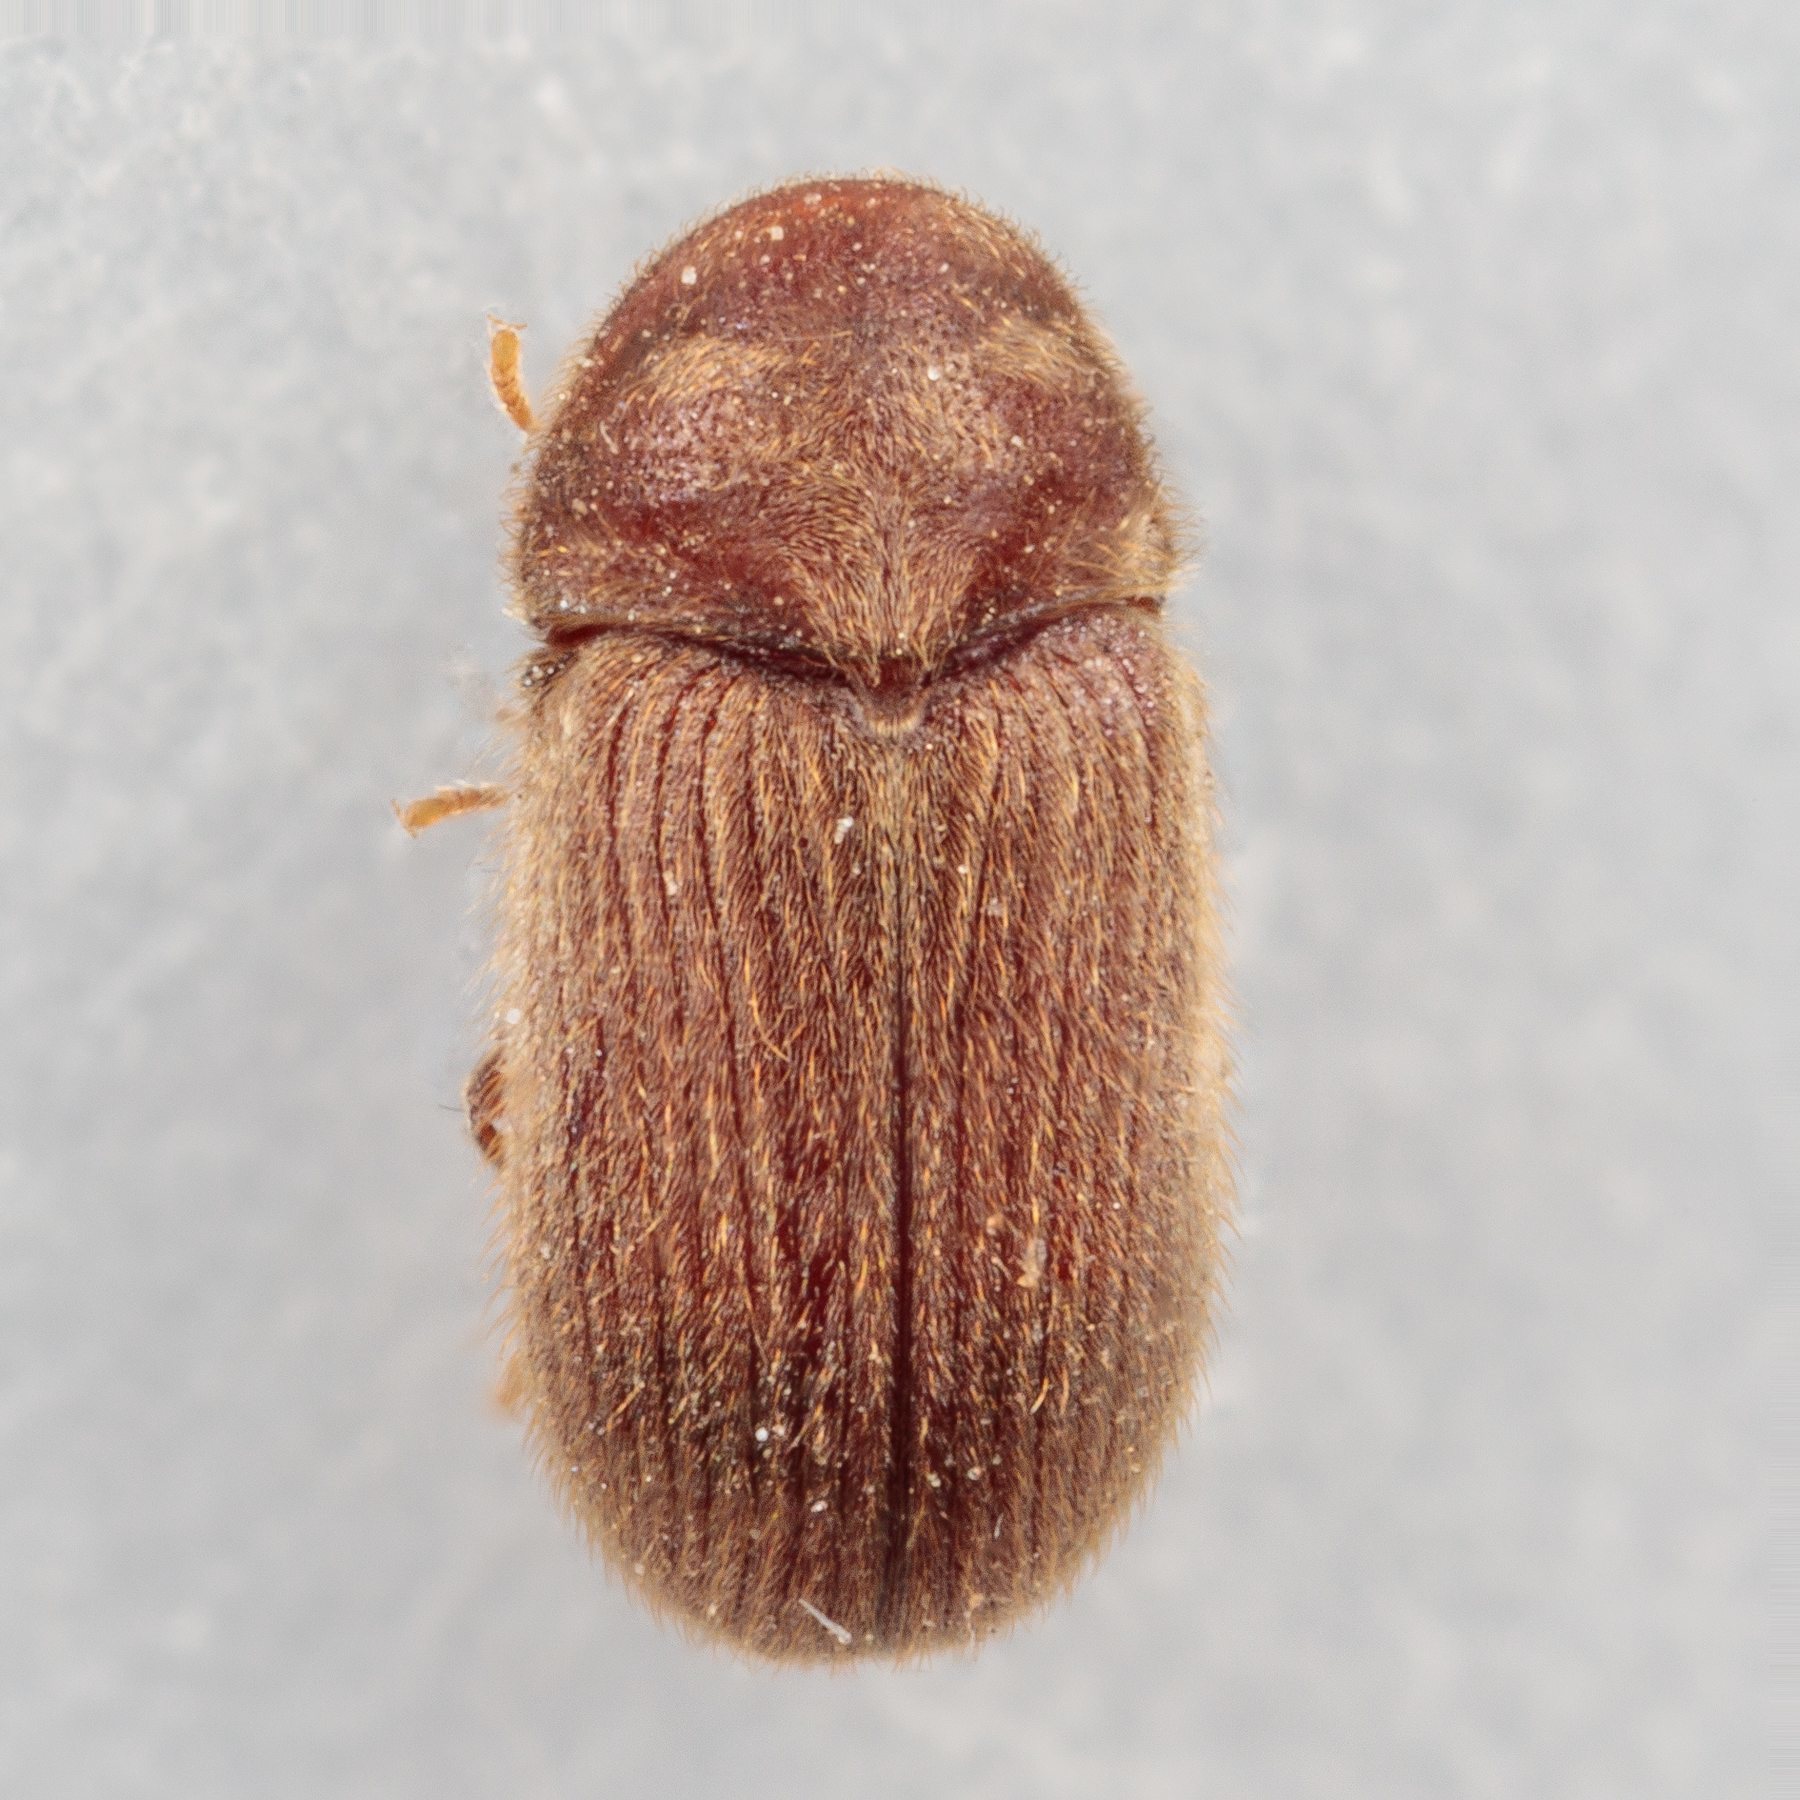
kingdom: Animalia
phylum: Arthropoda
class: Insecta
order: Coleoptera
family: Anobiidae
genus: Stegobium
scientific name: Stegobium paniceum
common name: Drugstore beetle
